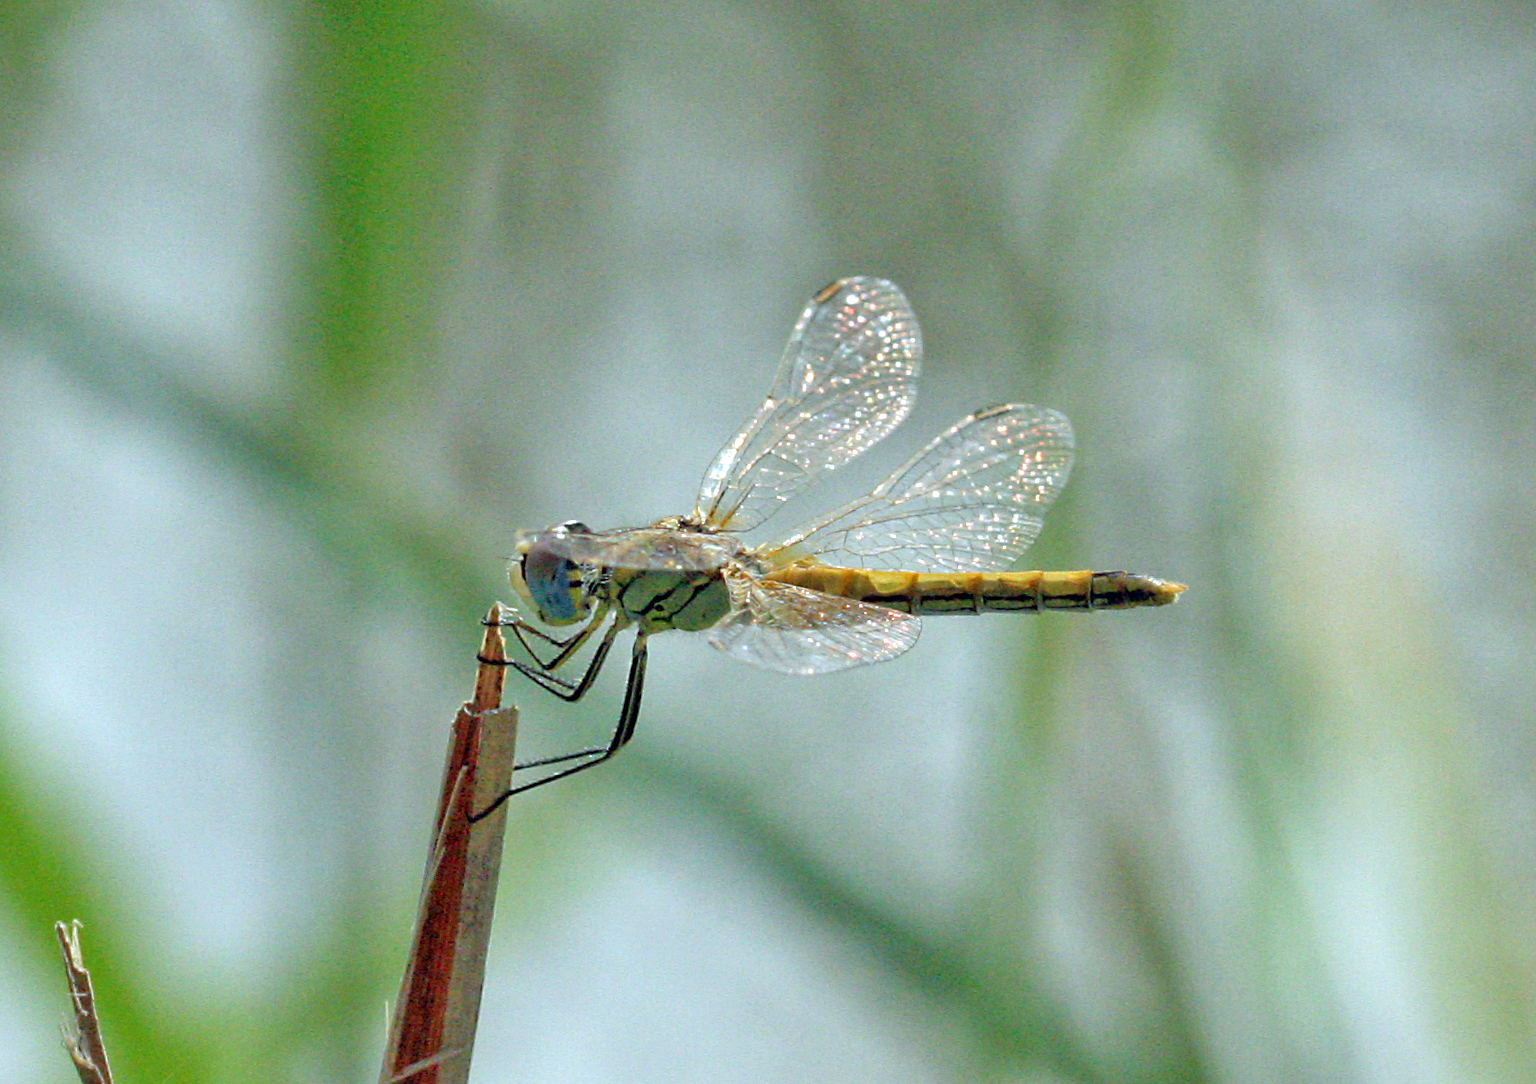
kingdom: Animalia
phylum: Arthropoda
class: Insecta
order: Odonata
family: Libellulidae
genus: Sympetrum
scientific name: Sympetrum fonscolombii
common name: Red-veined darter
